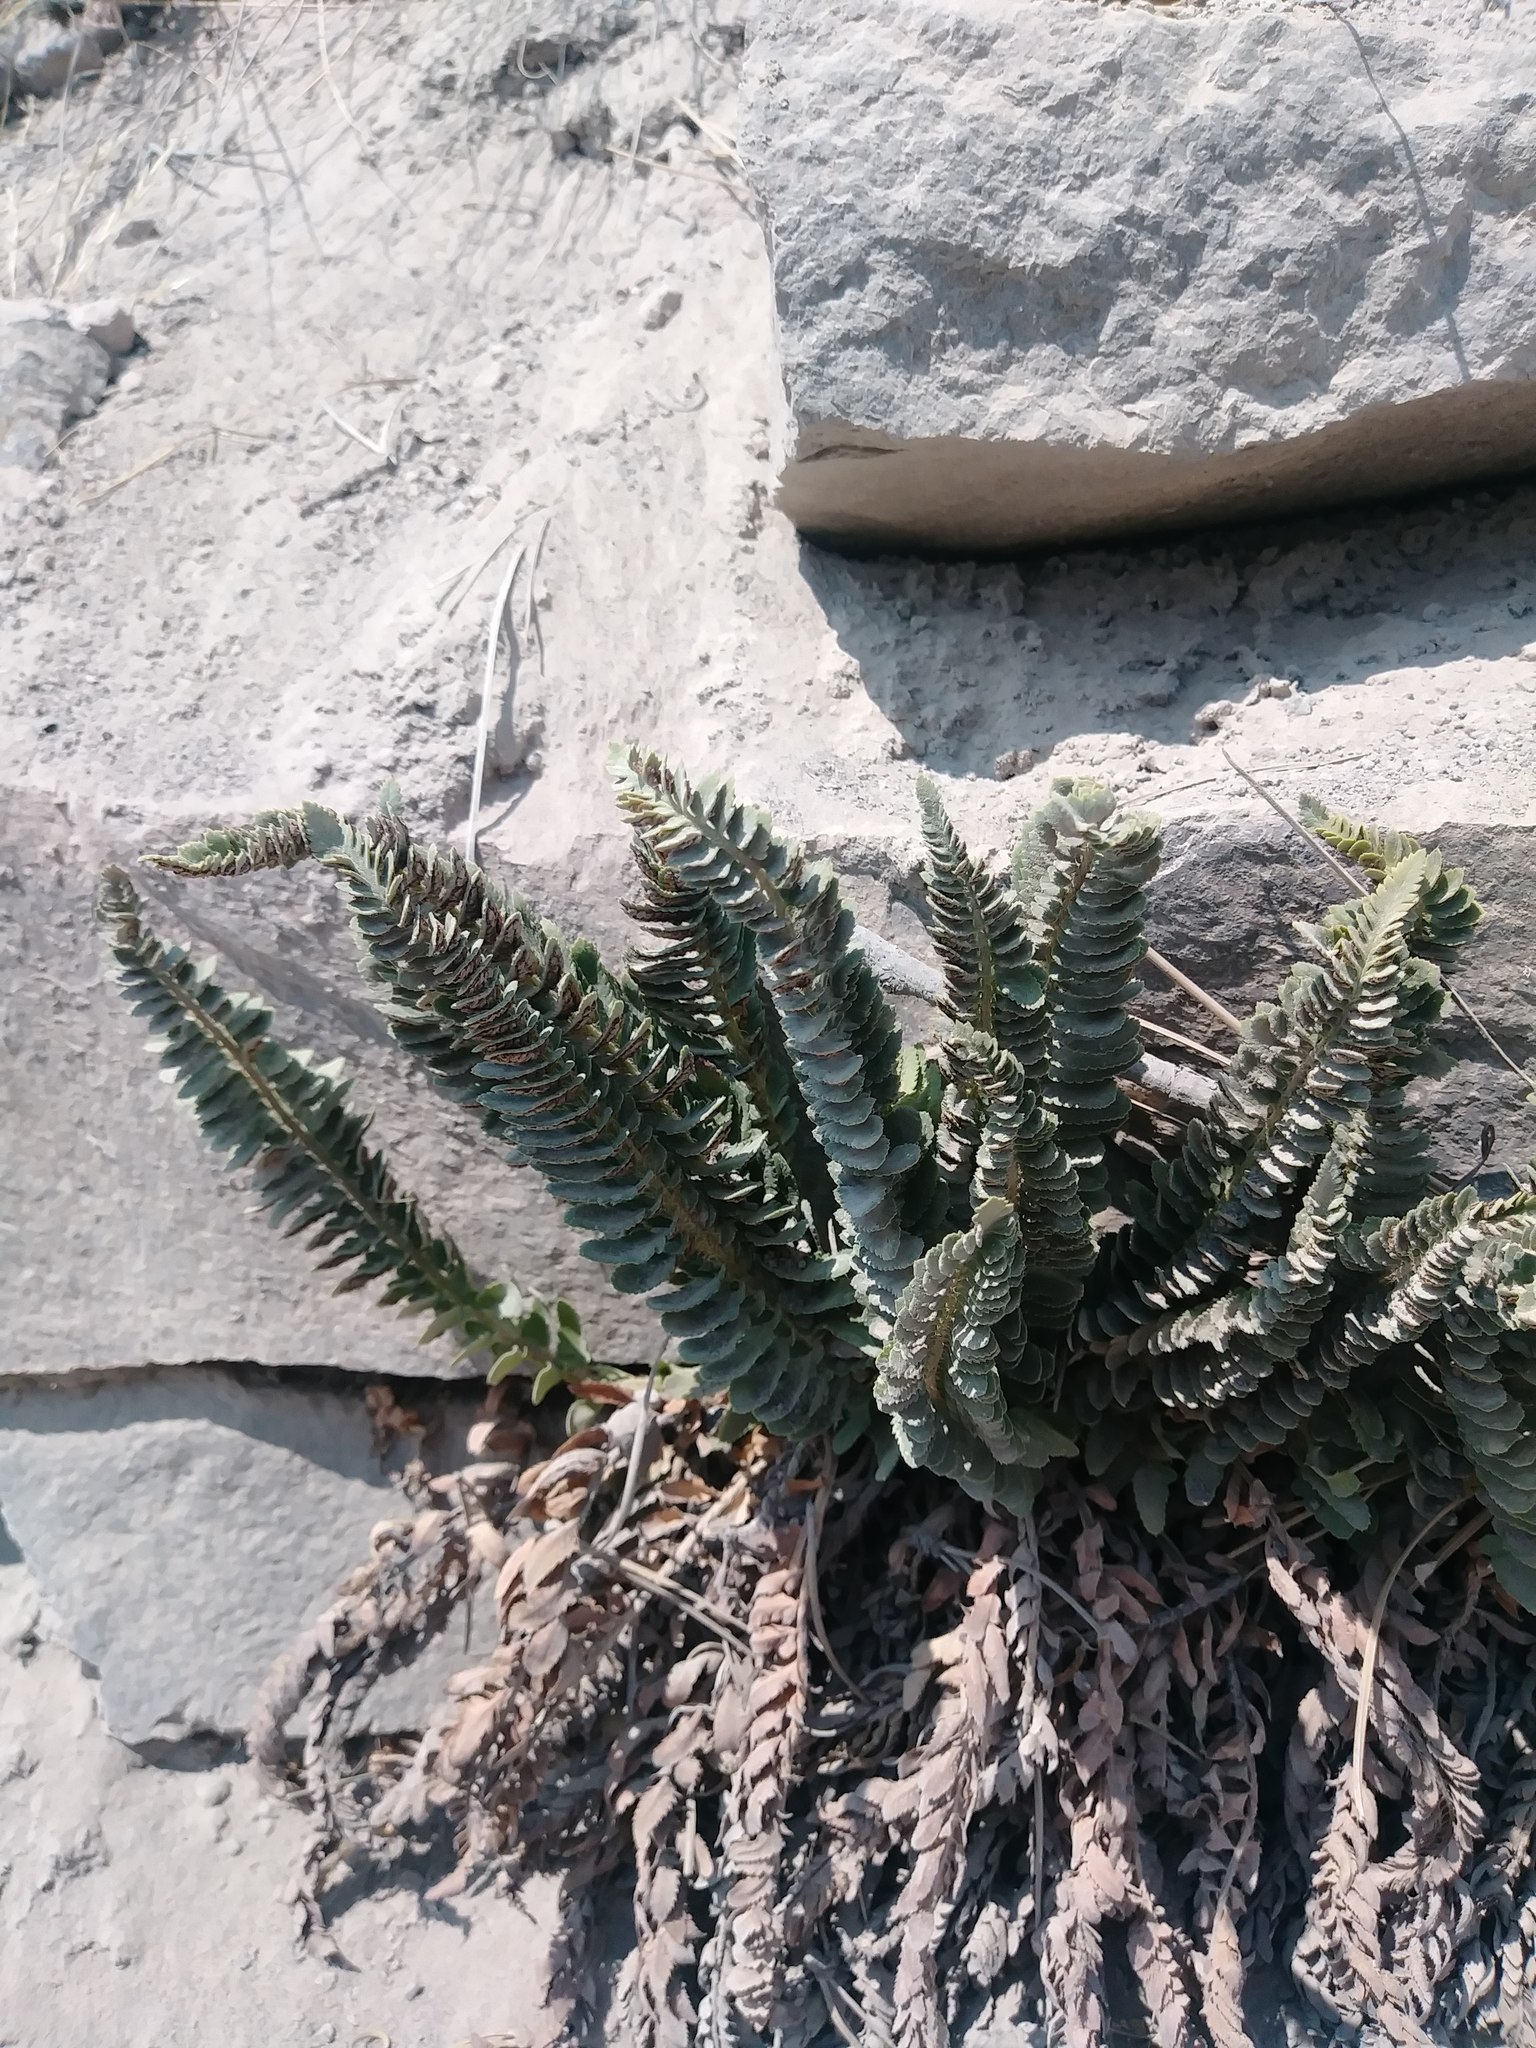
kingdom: Plantae
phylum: Tracheophyta
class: Polypodiopsida
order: Polypodiales
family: Dryopteridaceae
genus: Polystichum
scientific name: Polystichum scopulinum
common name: Eaton's shield fern
